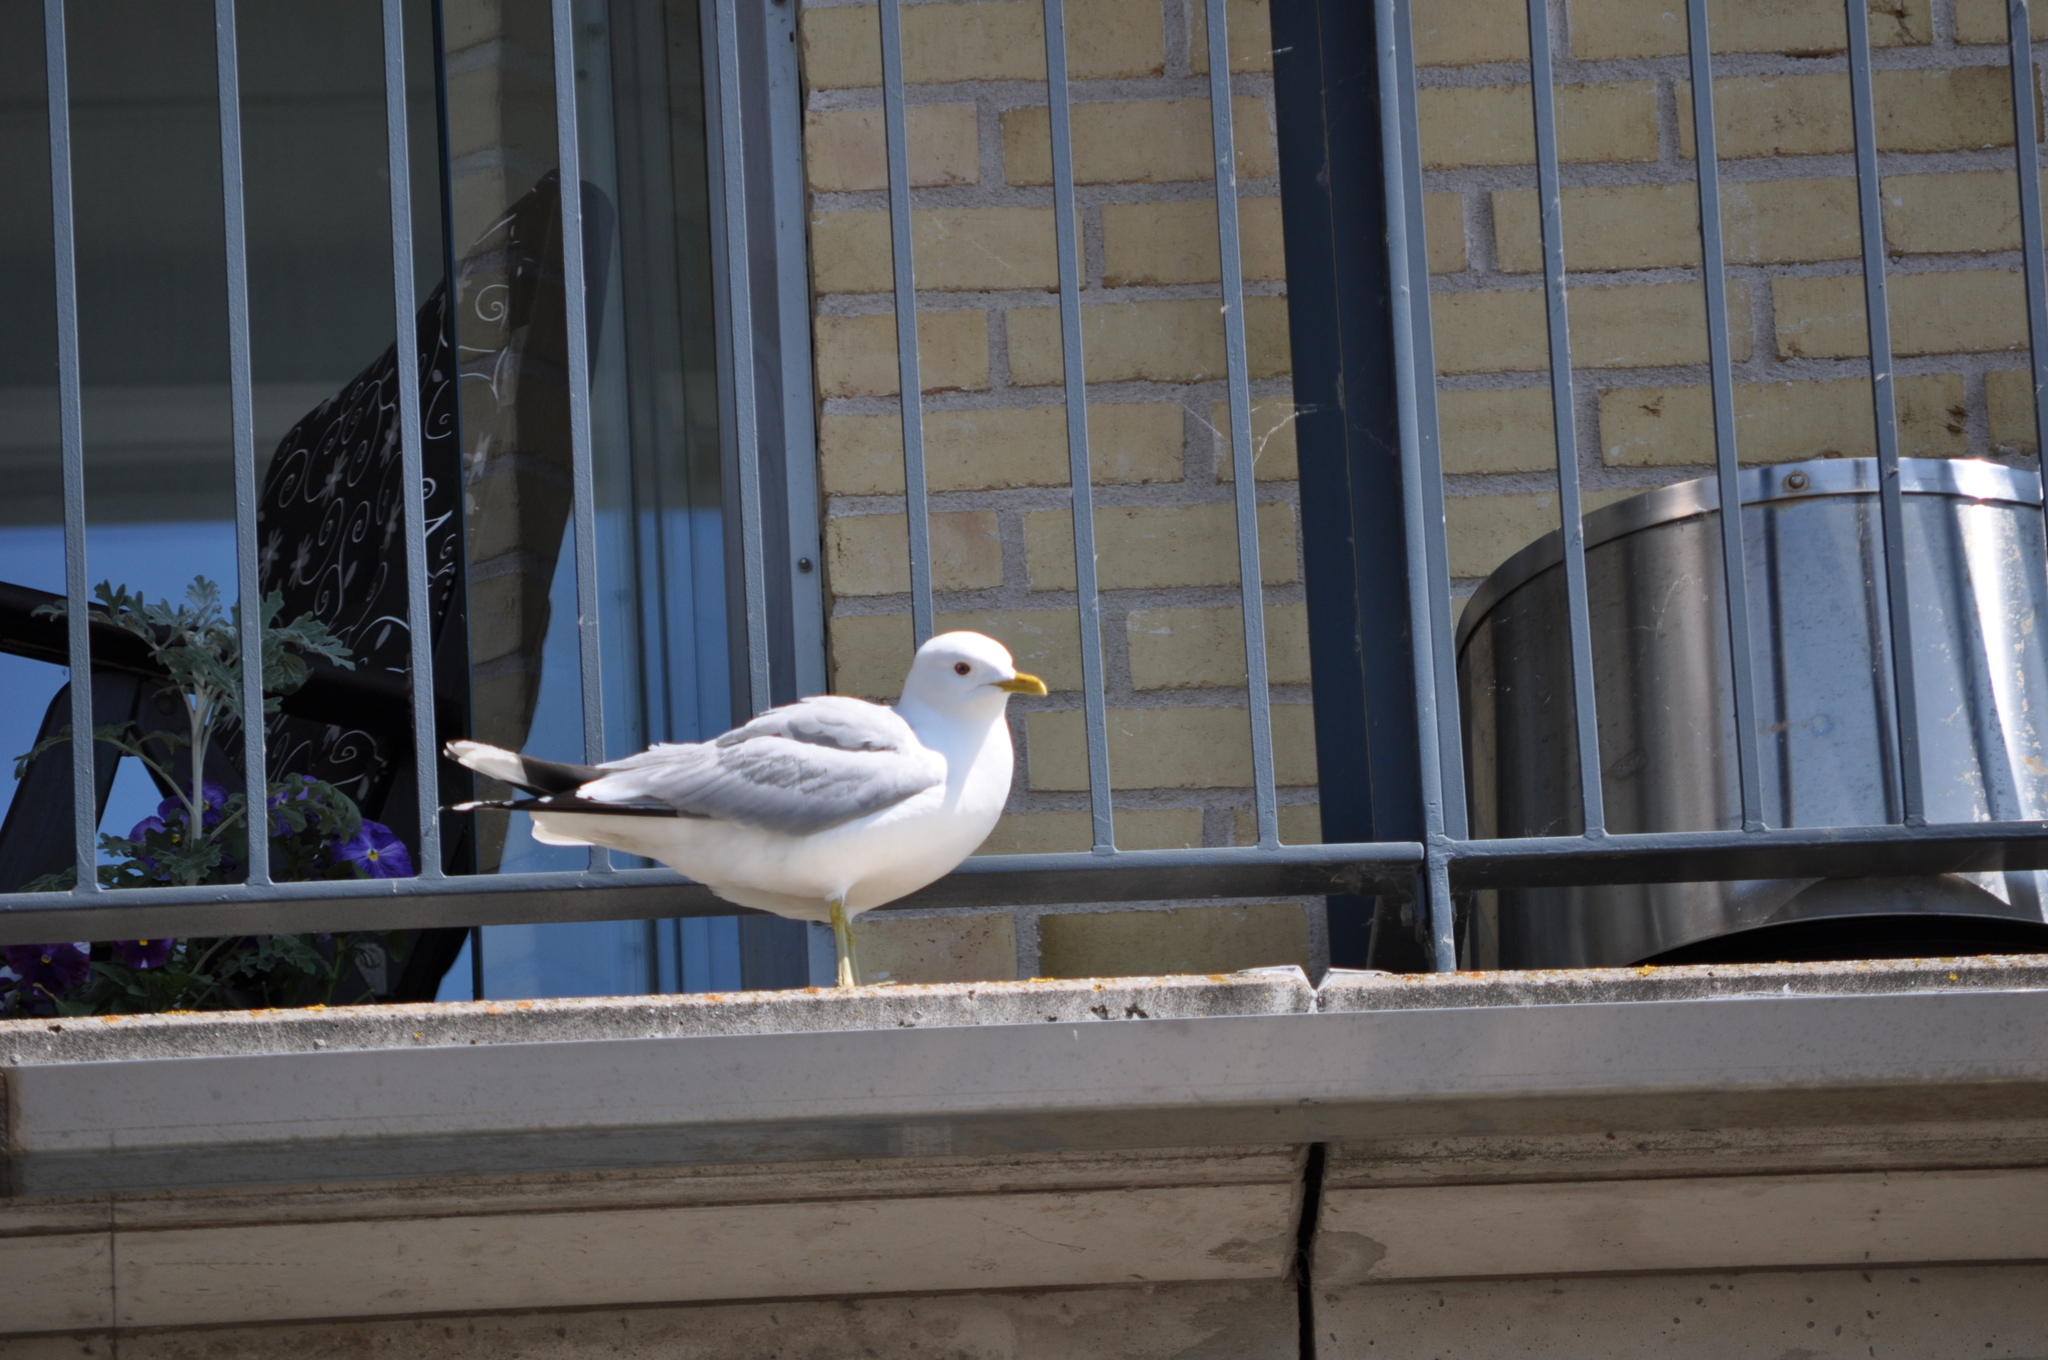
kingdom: Animalia
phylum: Chordata
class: Aves
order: Charadriiformes
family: Laridae
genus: Larus
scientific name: Larus canus
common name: Mew gull
